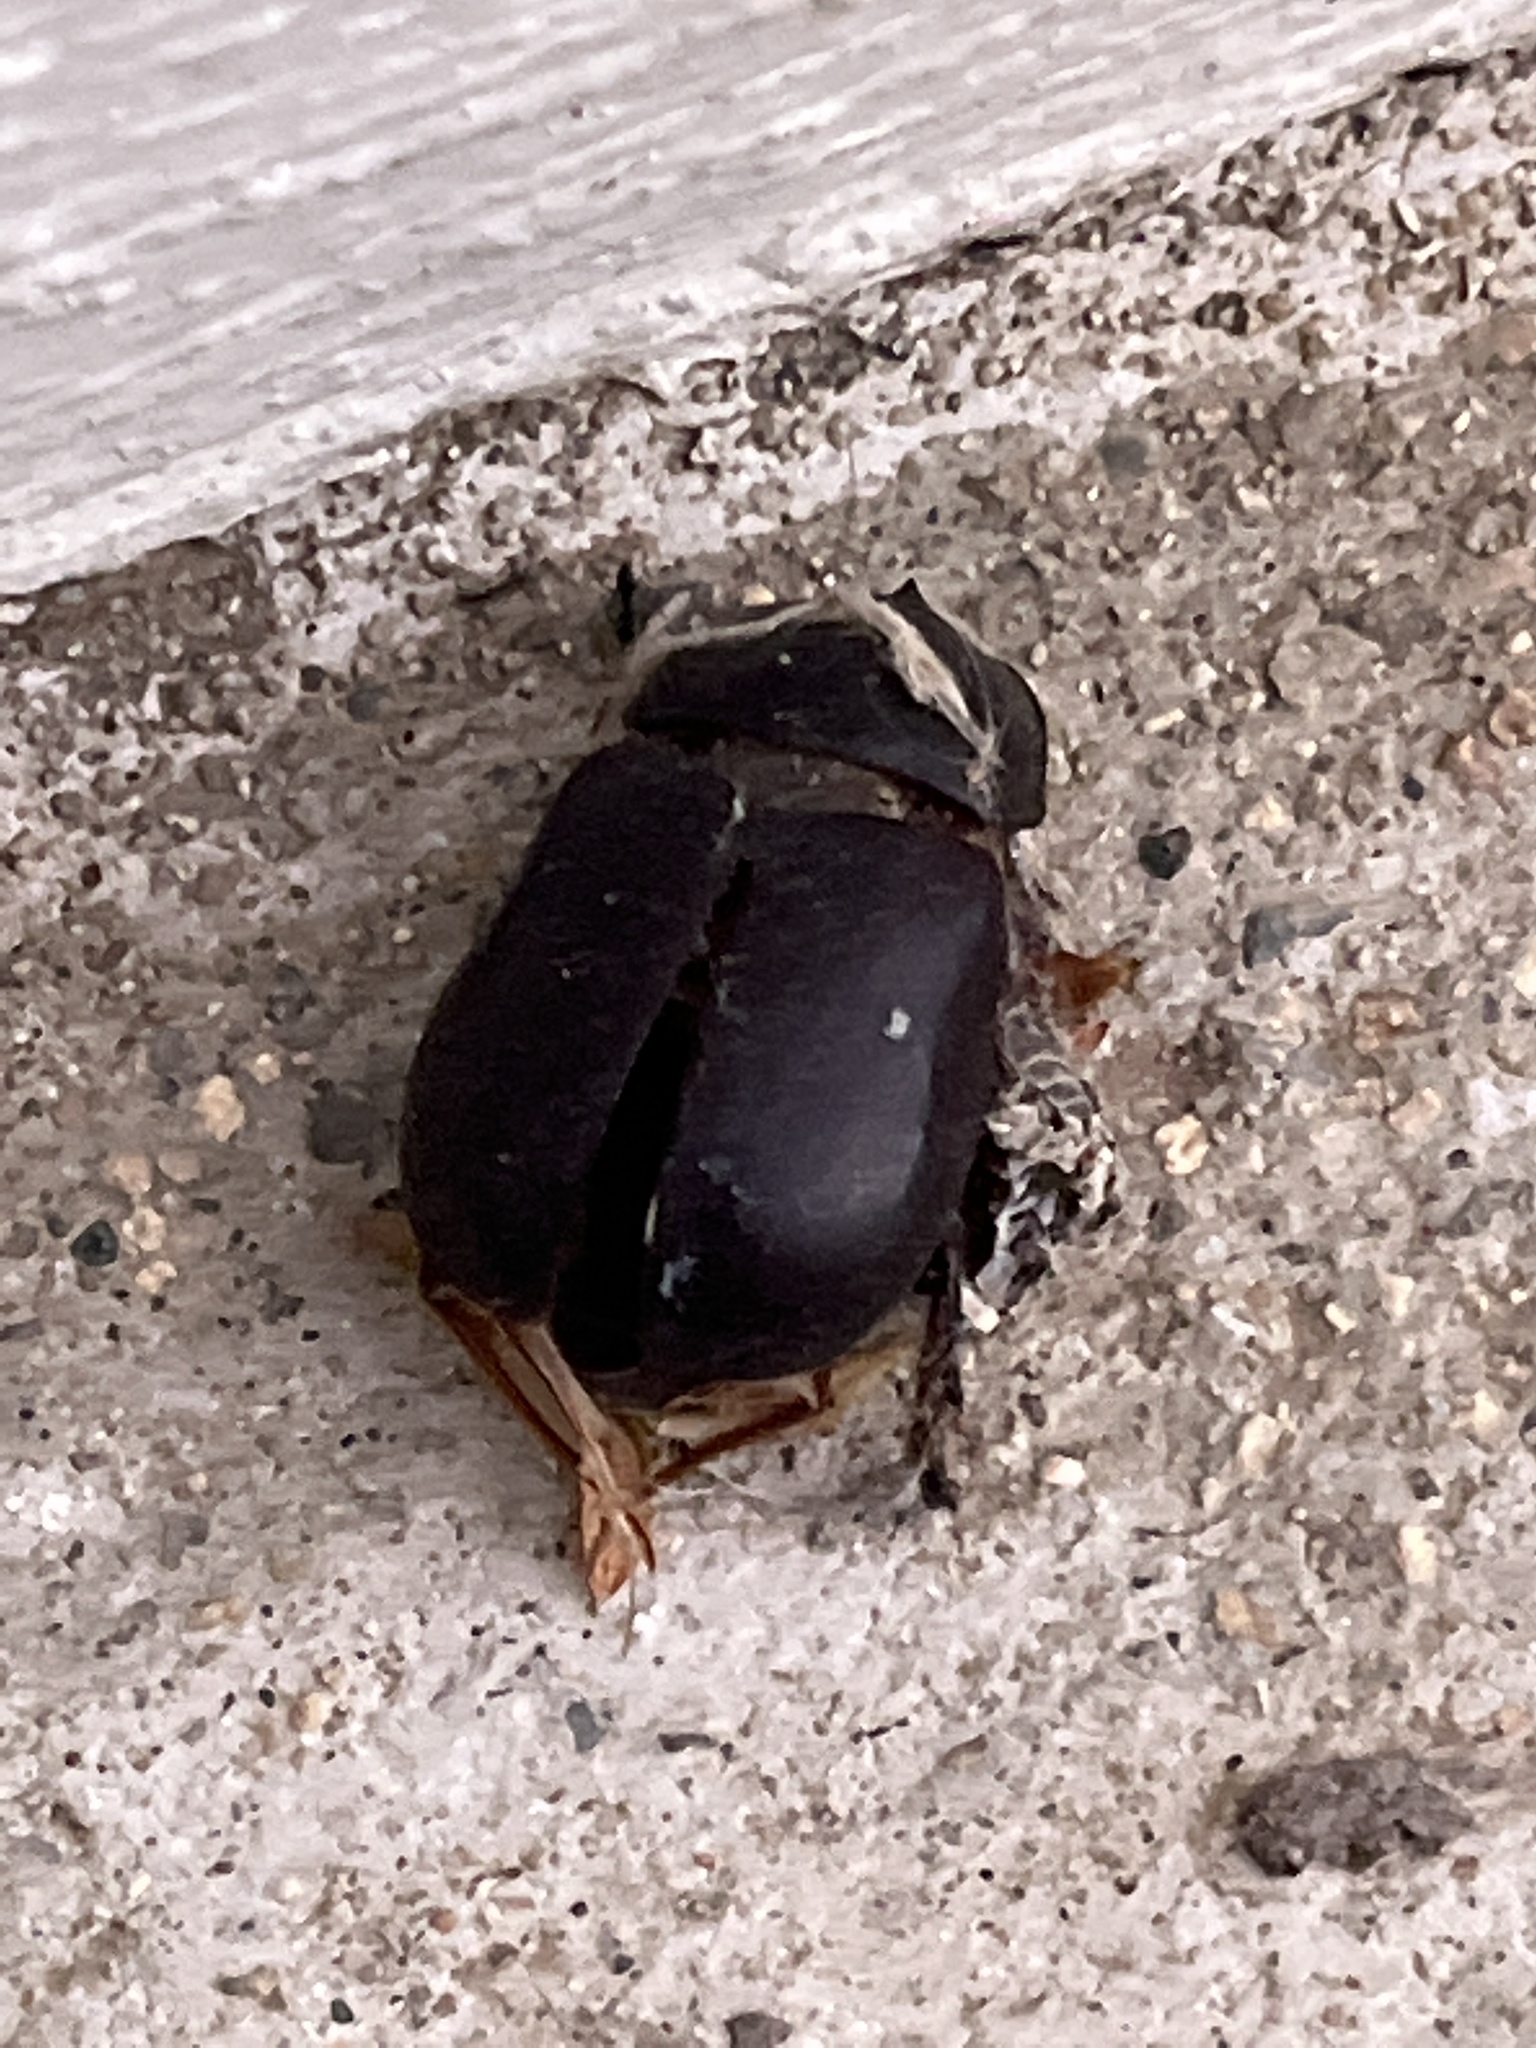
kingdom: Animalia
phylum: Arthropoda
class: Insecta
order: Coleoptera
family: Scarabaeidae
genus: Xyloryctes
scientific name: Xyloryctes corniger
